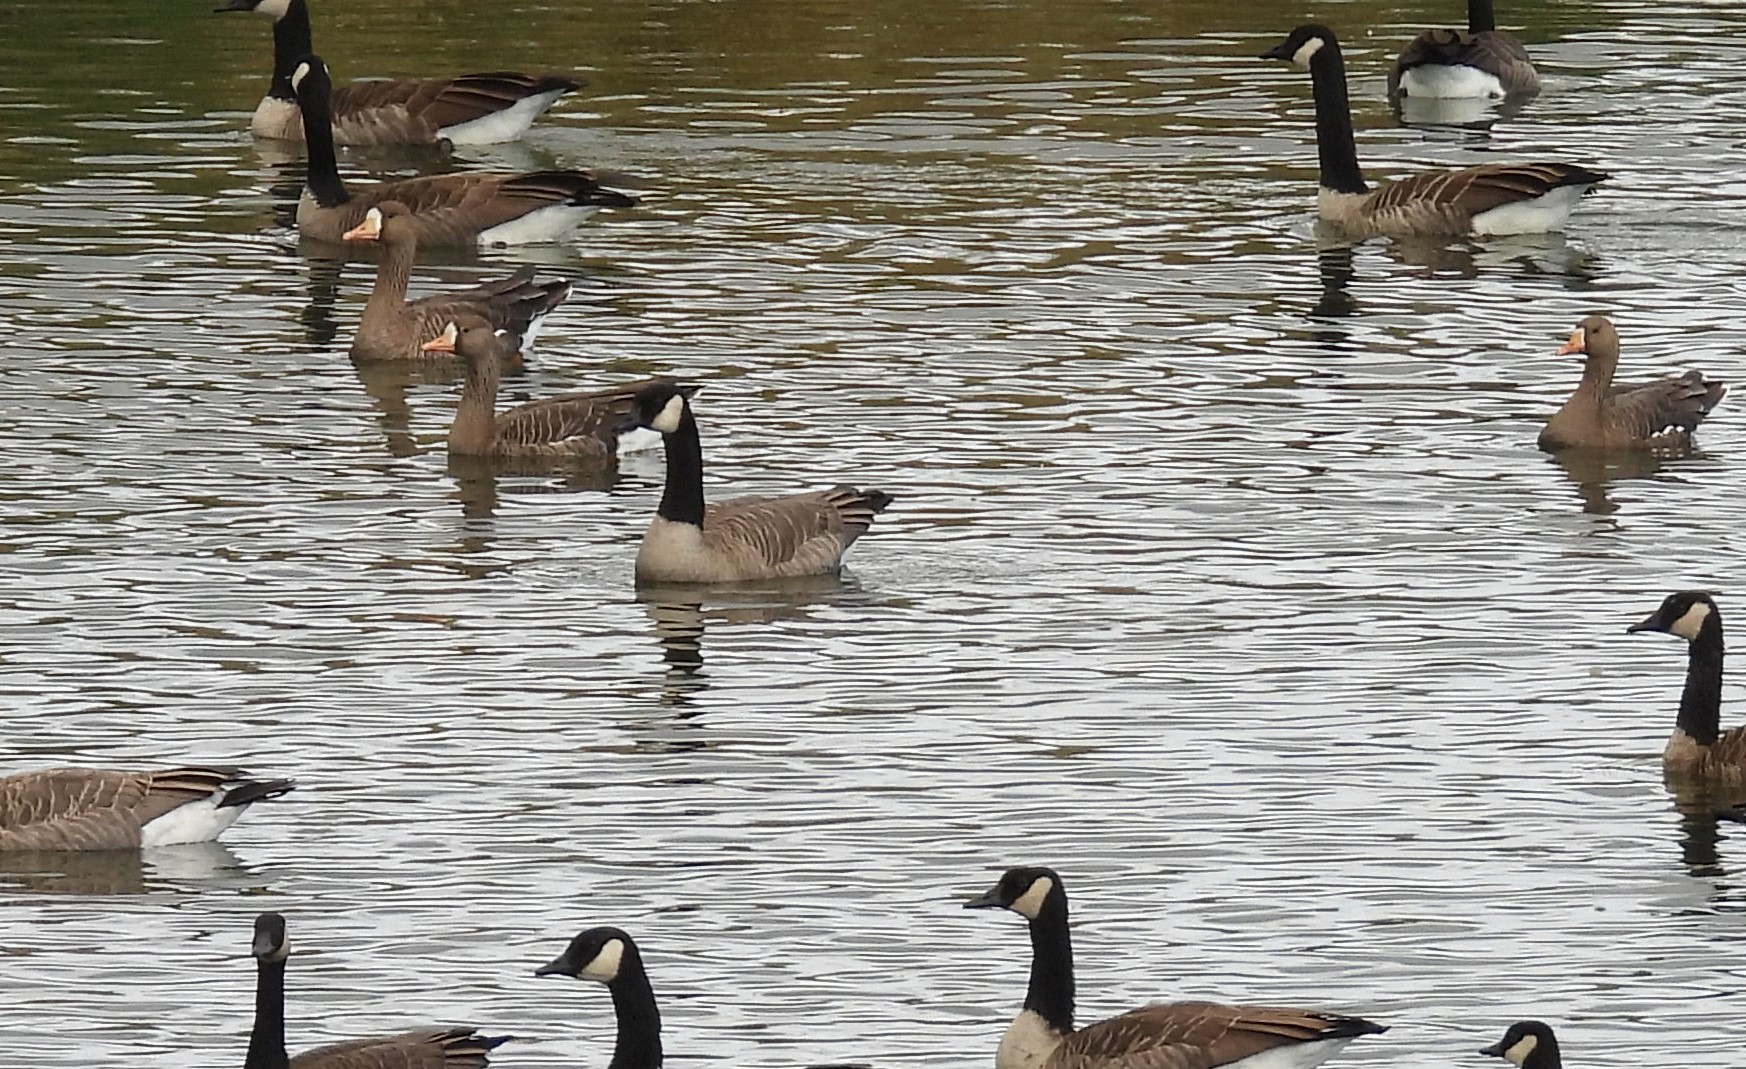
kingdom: Animalia
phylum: Chordata
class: Aves
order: Anseriformes
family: Anatidae
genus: Anser
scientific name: Anser albifrons
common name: Greater white-fronted goose
